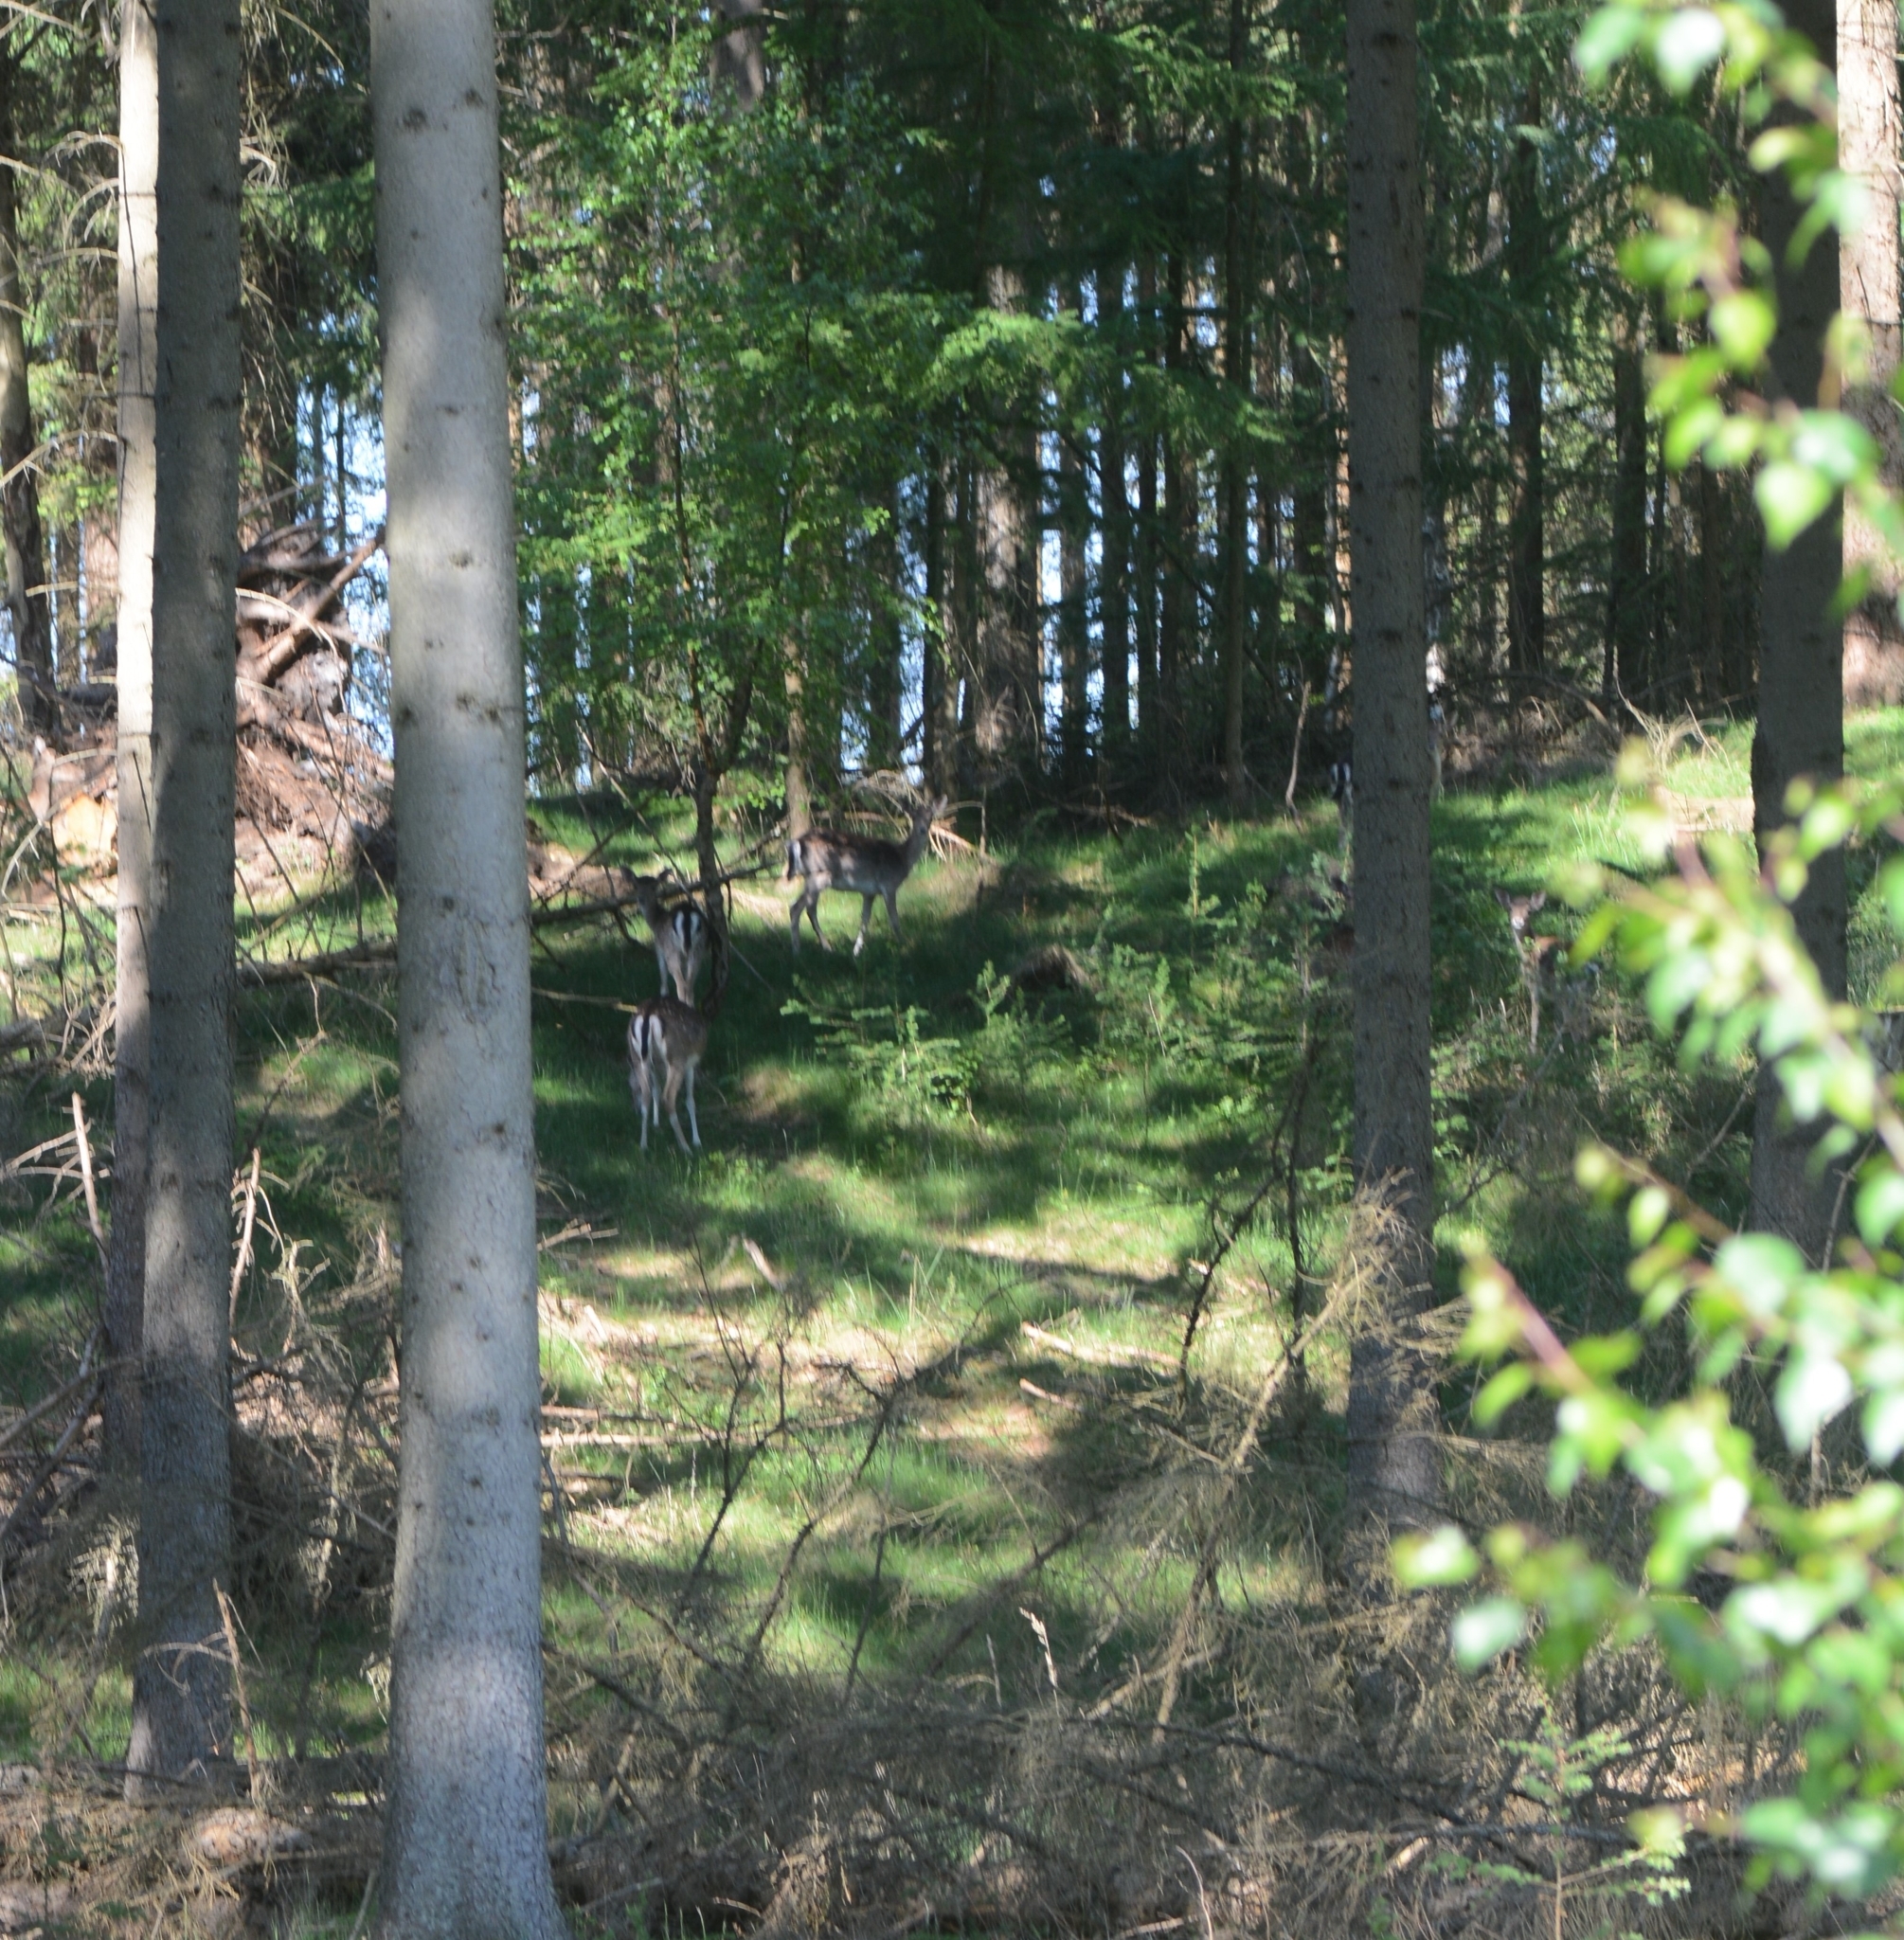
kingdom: Animalia
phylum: Chordata
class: Mammalia
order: Artiodactyla
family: Cervidae
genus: Dama
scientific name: Dama dama
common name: Fallow deer
